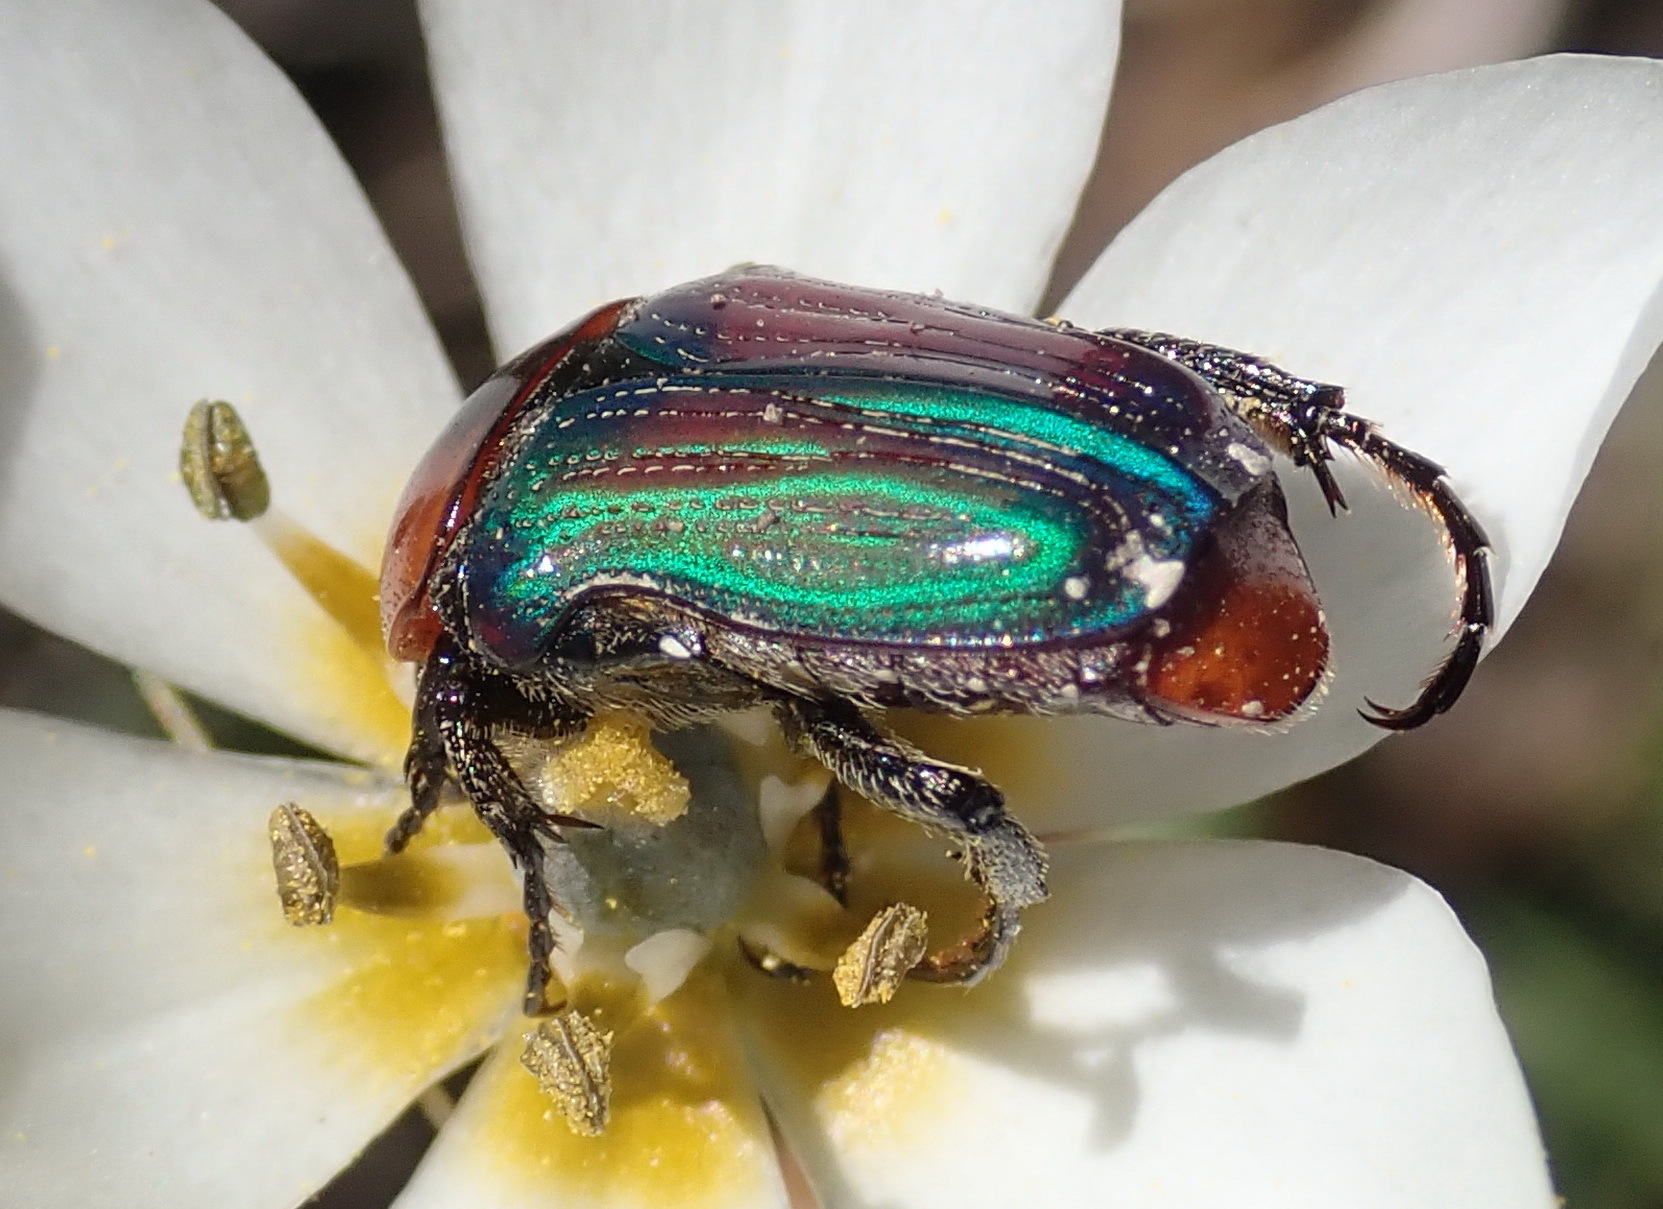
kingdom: Animalia
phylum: Arthropoda
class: Insecta
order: Coleoptera
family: Scarabaeidae
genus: Leucocelis
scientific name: Leucocelis amethystina
